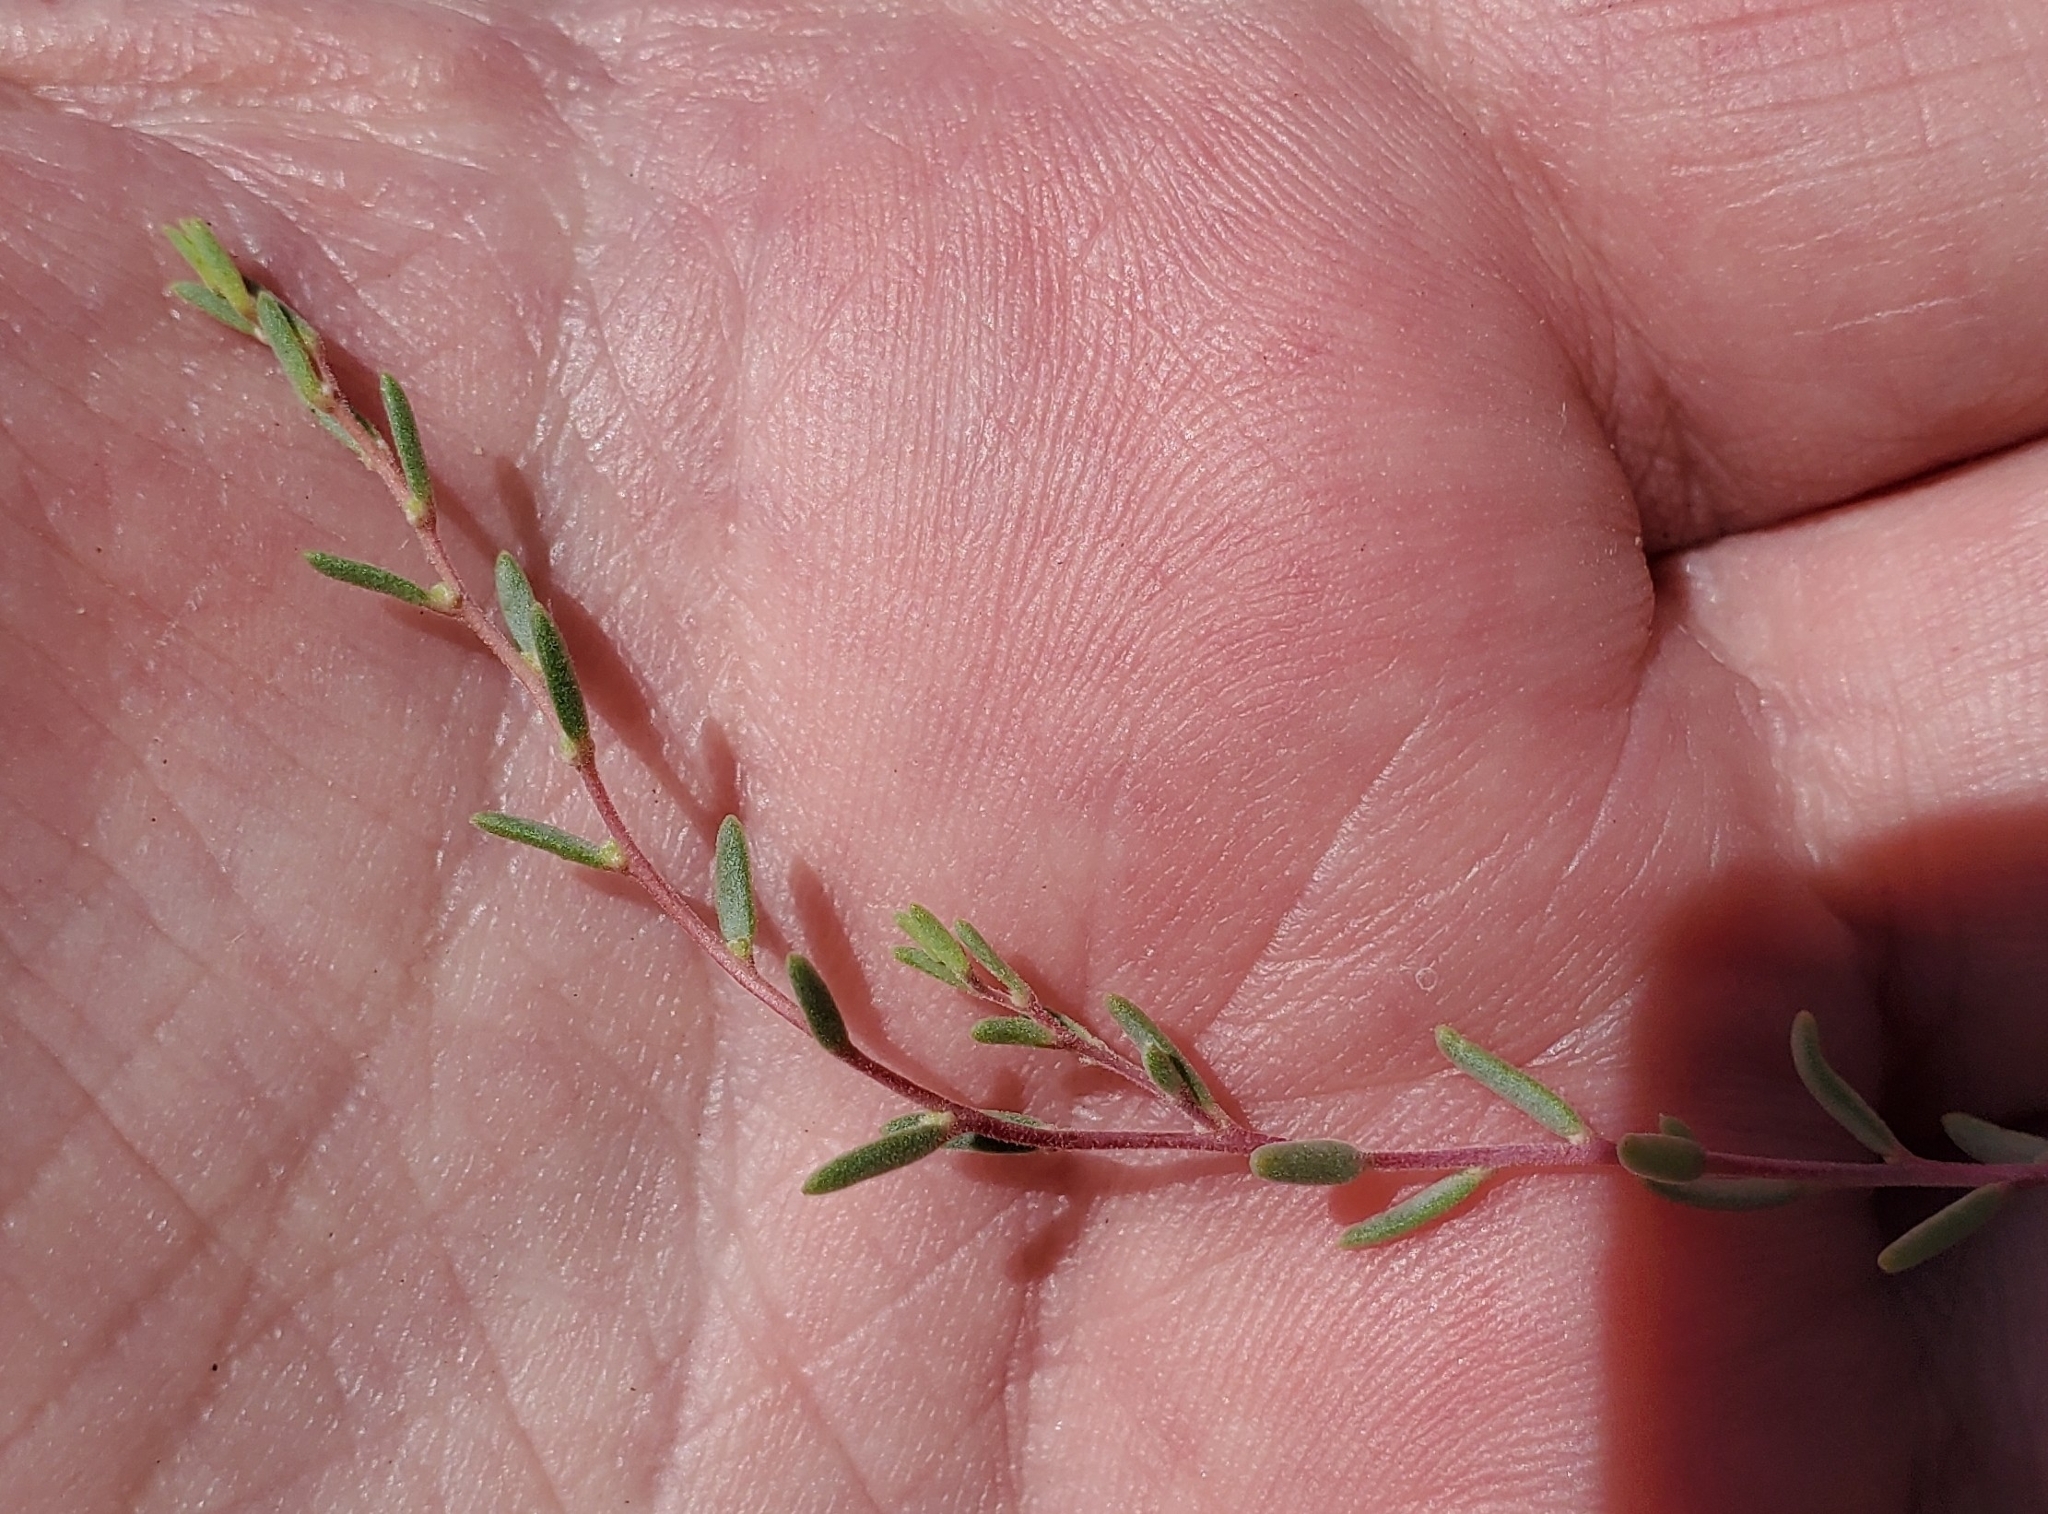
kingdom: Plantae
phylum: Tracheophyta
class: Magnoliopsida
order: Caryophyllales
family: Amaranthaceae
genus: Suaeda
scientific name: Suaeda nigra
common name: Bush seepweed
